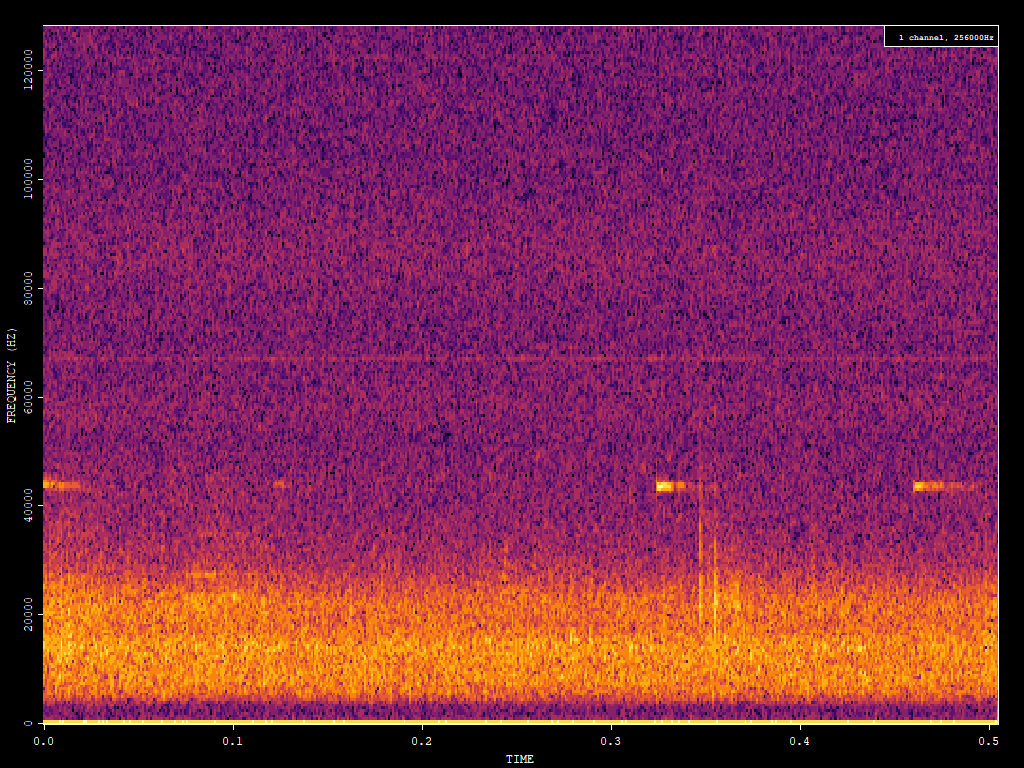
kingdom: Animalia
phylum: Chordata
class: Mammalia
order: Chiroptera
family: Vespertilionidae
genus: Pipistrellus
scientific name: Pipistrellus pipistrellus
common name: Common pipistrelle
